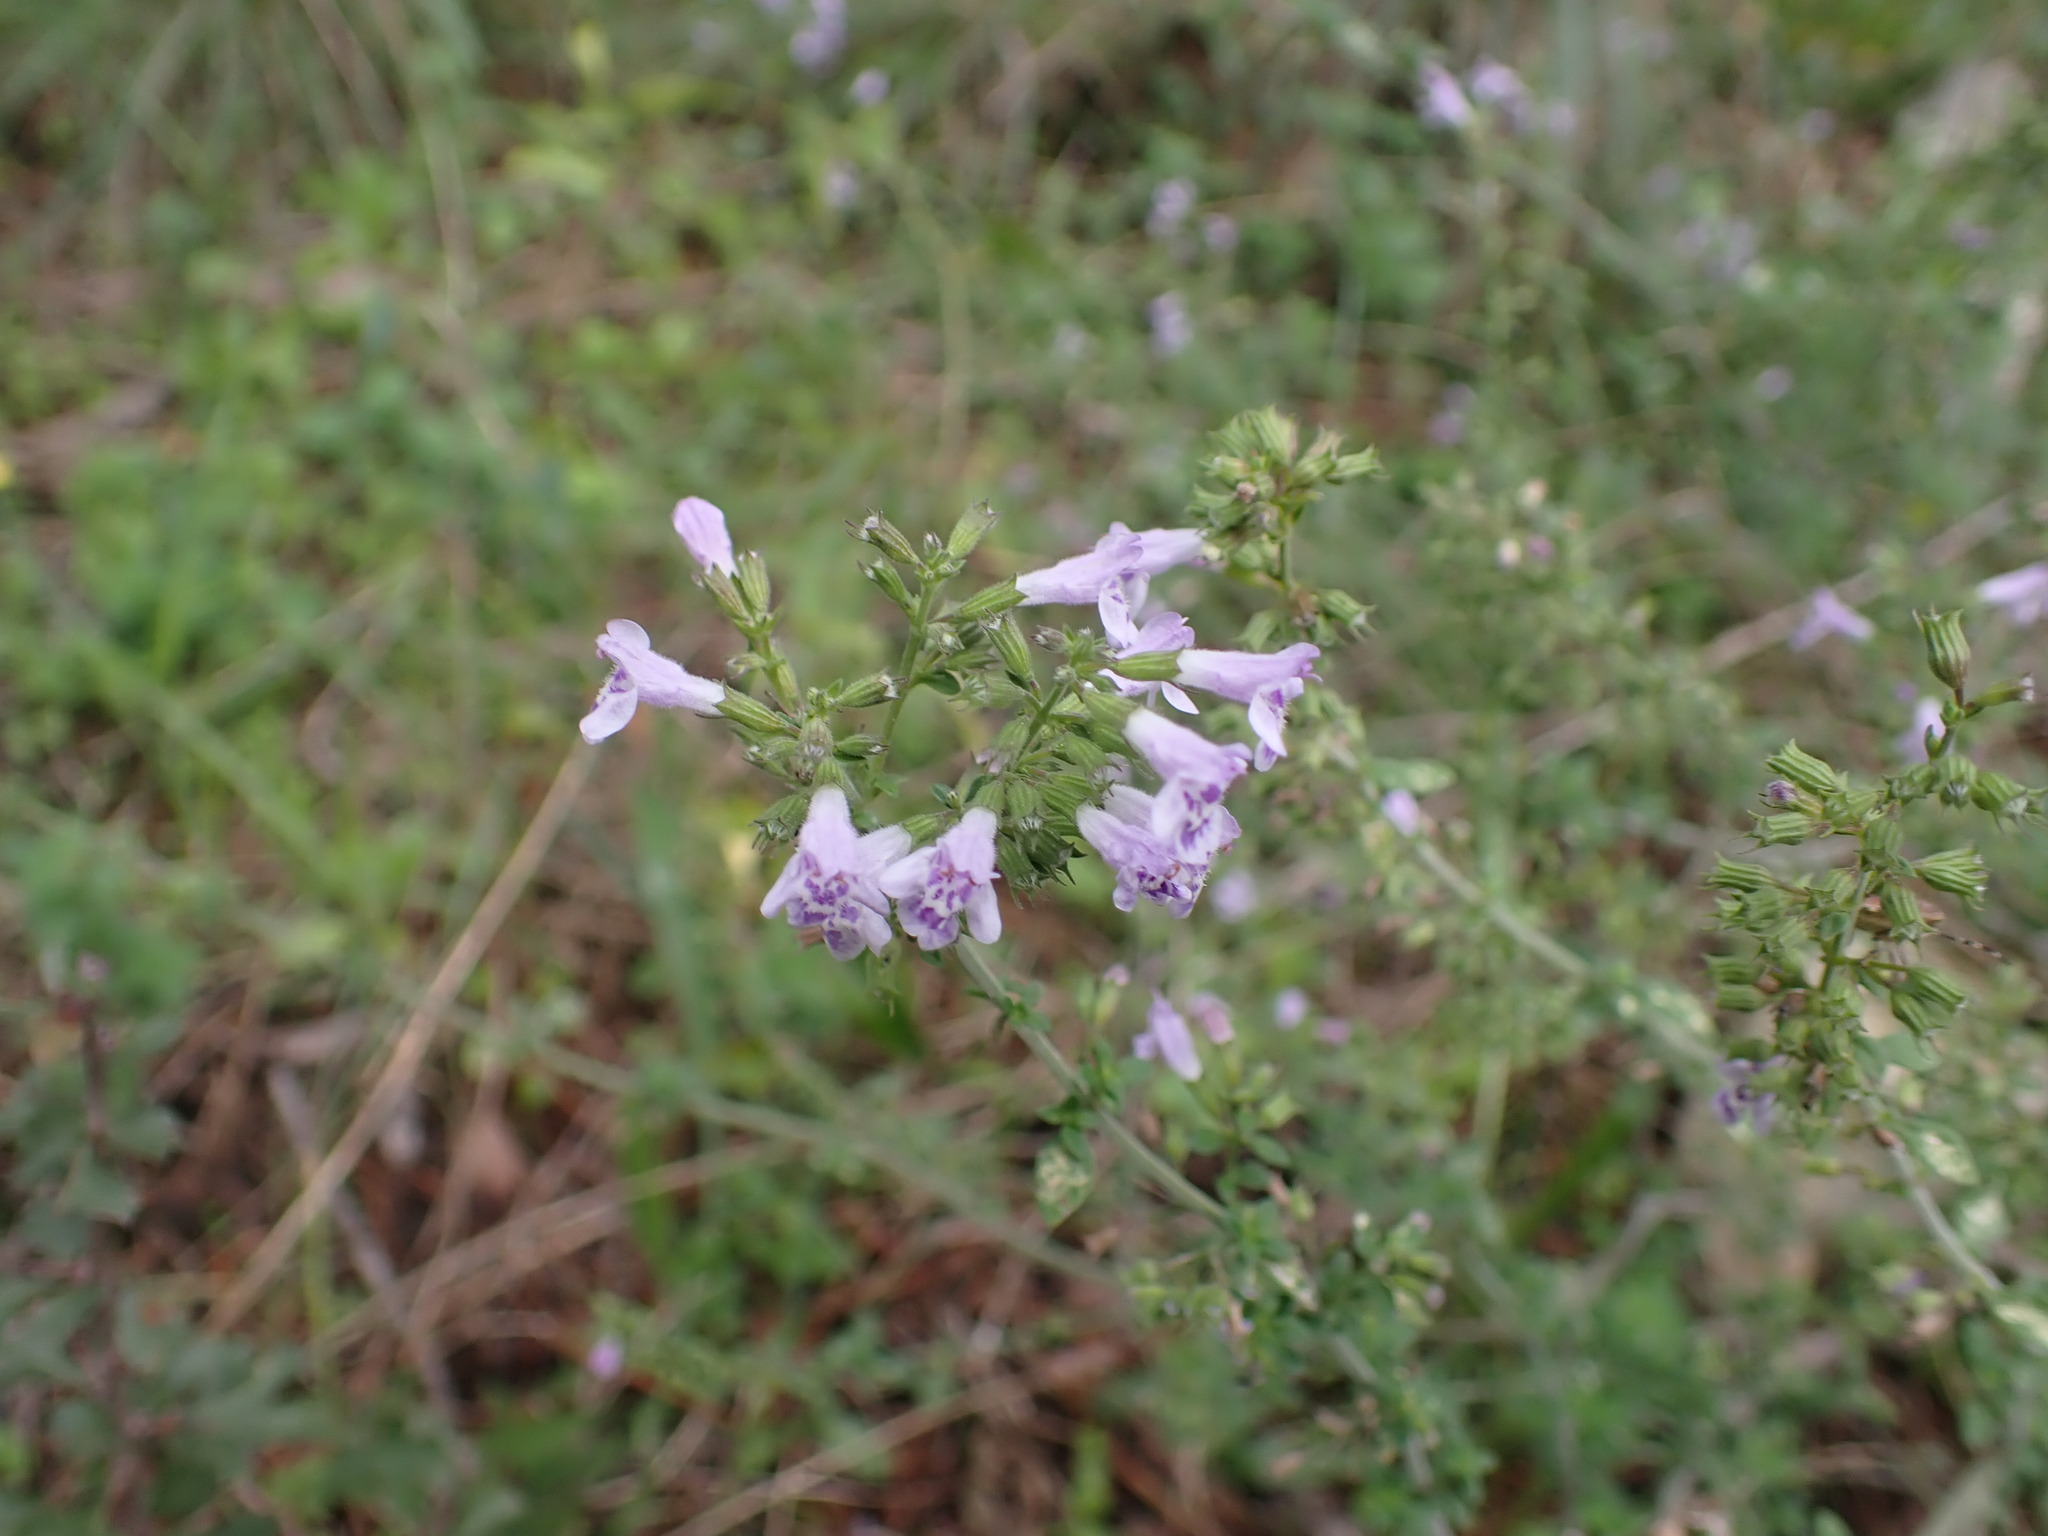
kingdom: Plantae
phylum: Tracheophyta
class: Magnoliopsida
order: Lamiales
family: Lamiaceae
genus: Clinopodium
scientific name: Clinopodium nepeta
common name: Lesser calamint
